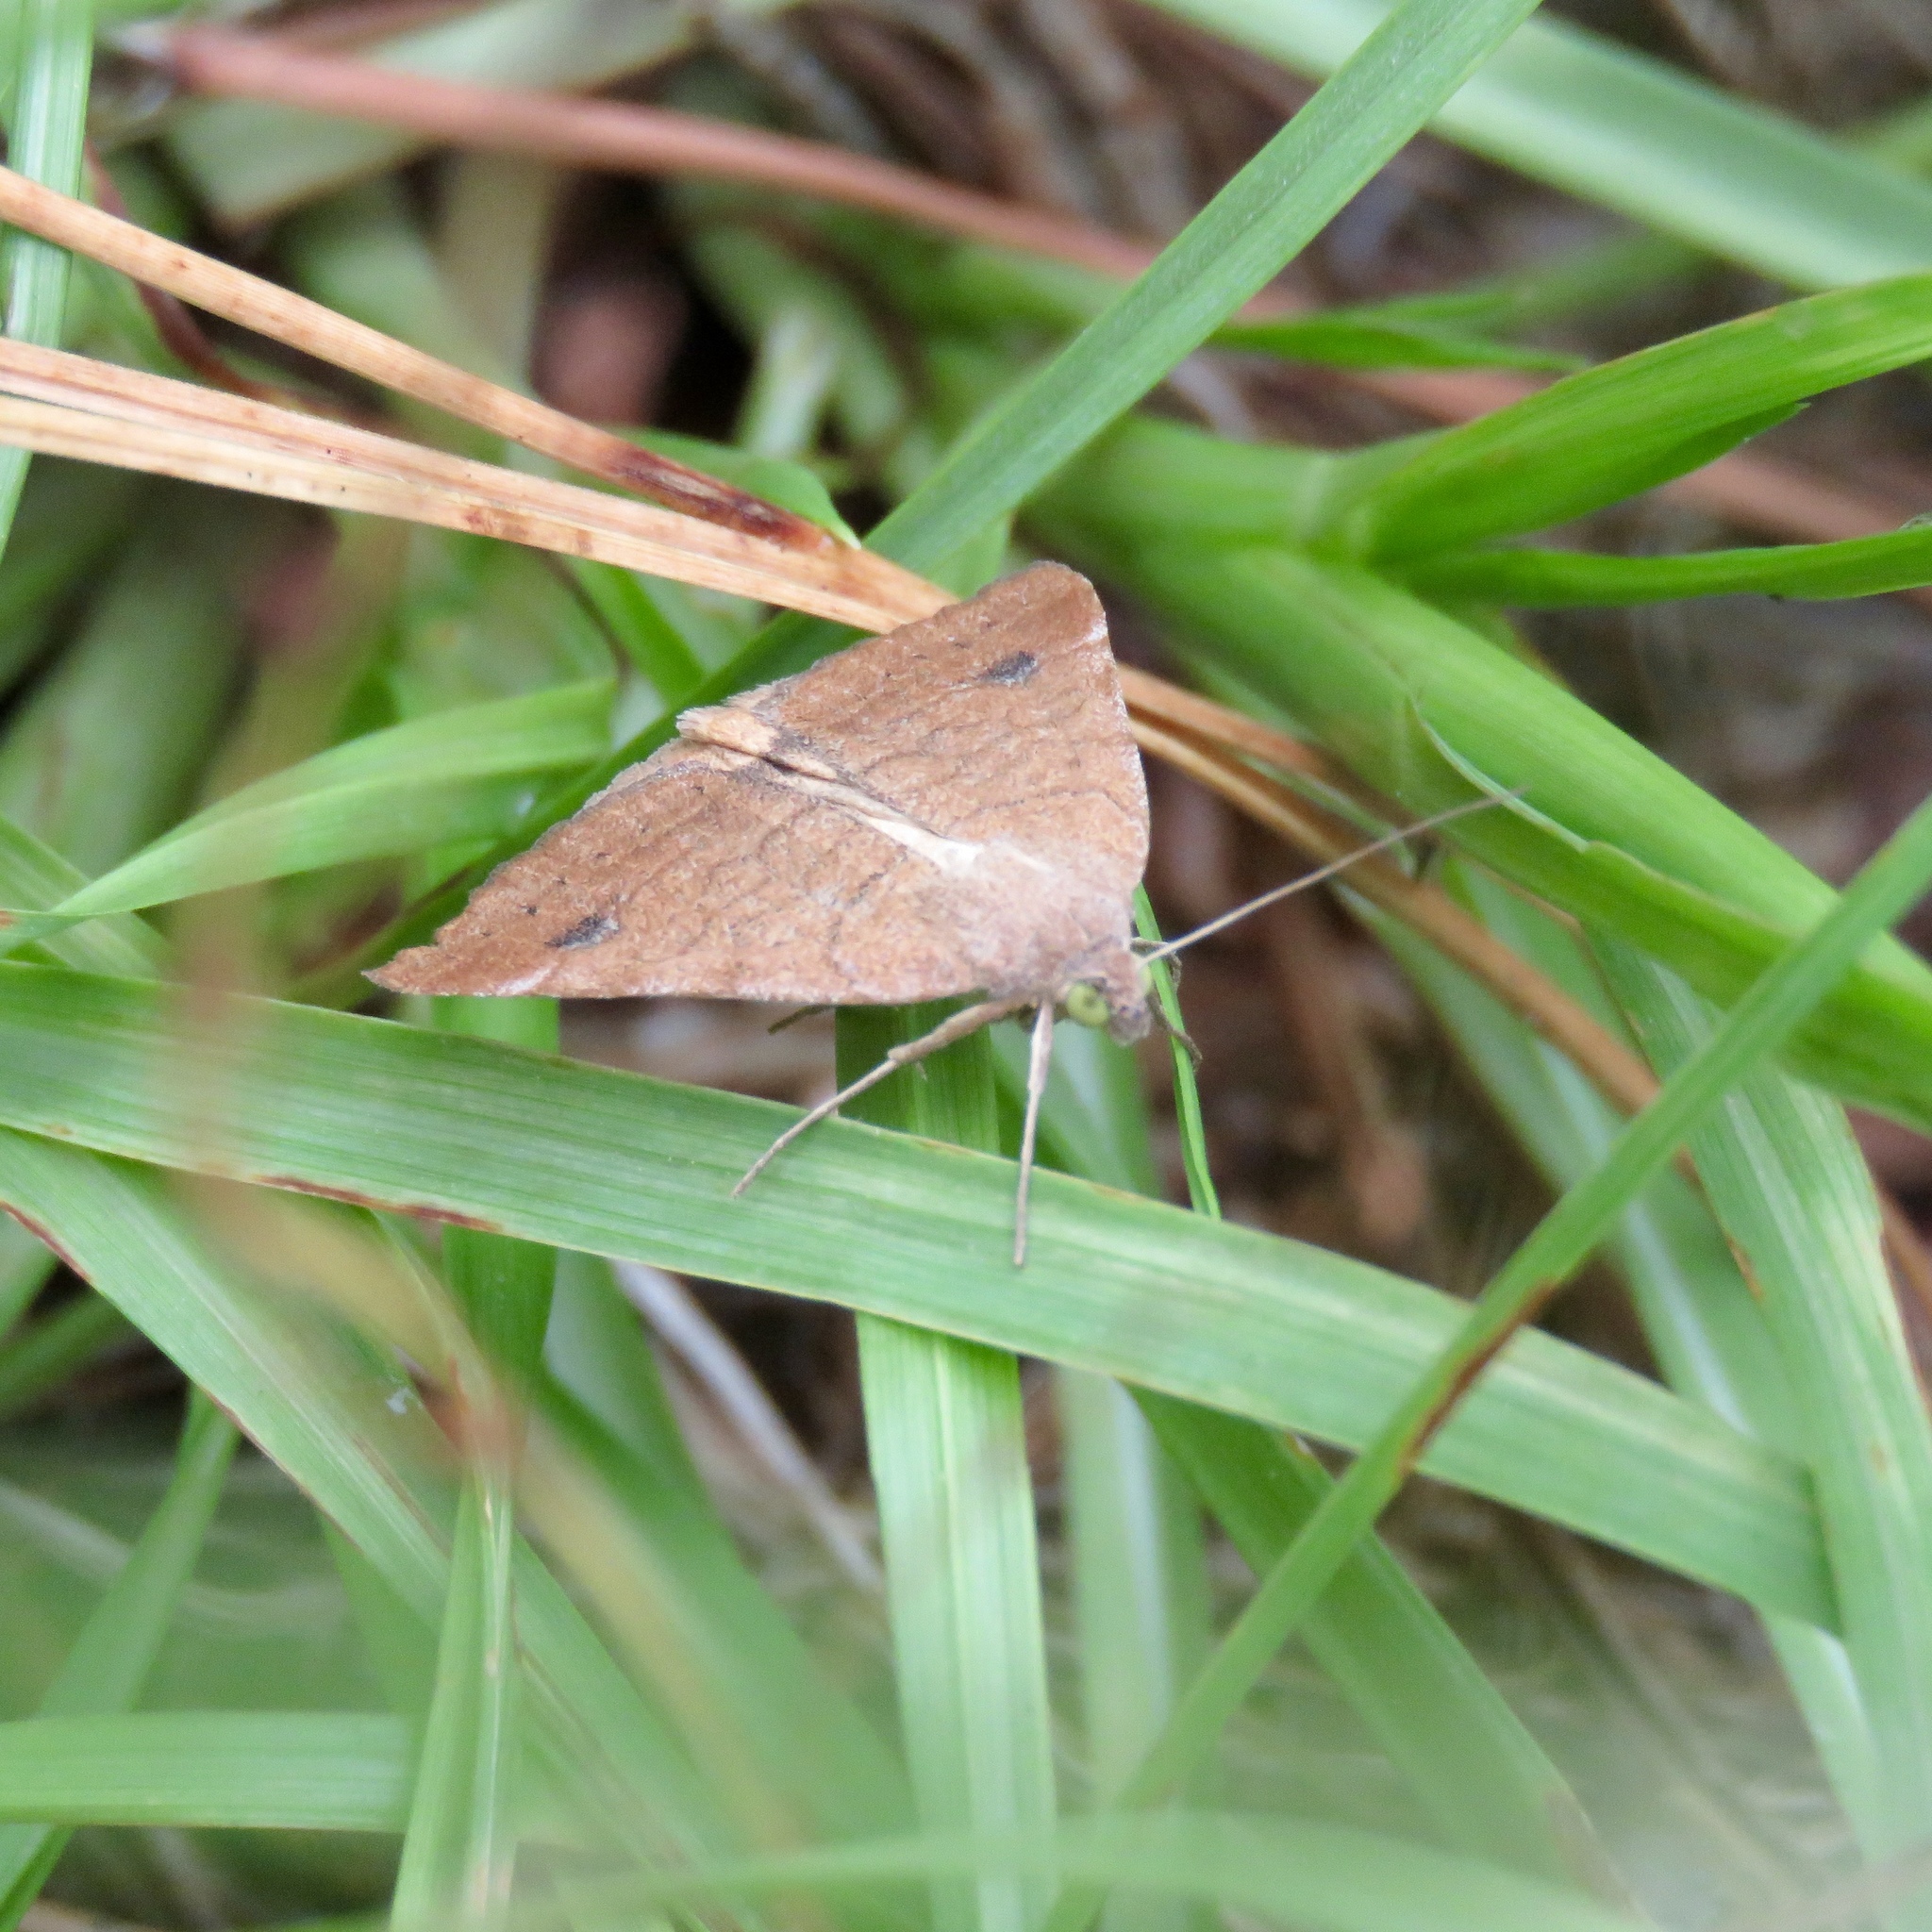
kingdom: Animalia
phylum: Arthropoda
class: Insecta
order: Lepidoptera
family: Erebidae
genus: Caenurgia
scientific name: Caenurgia chloropha
